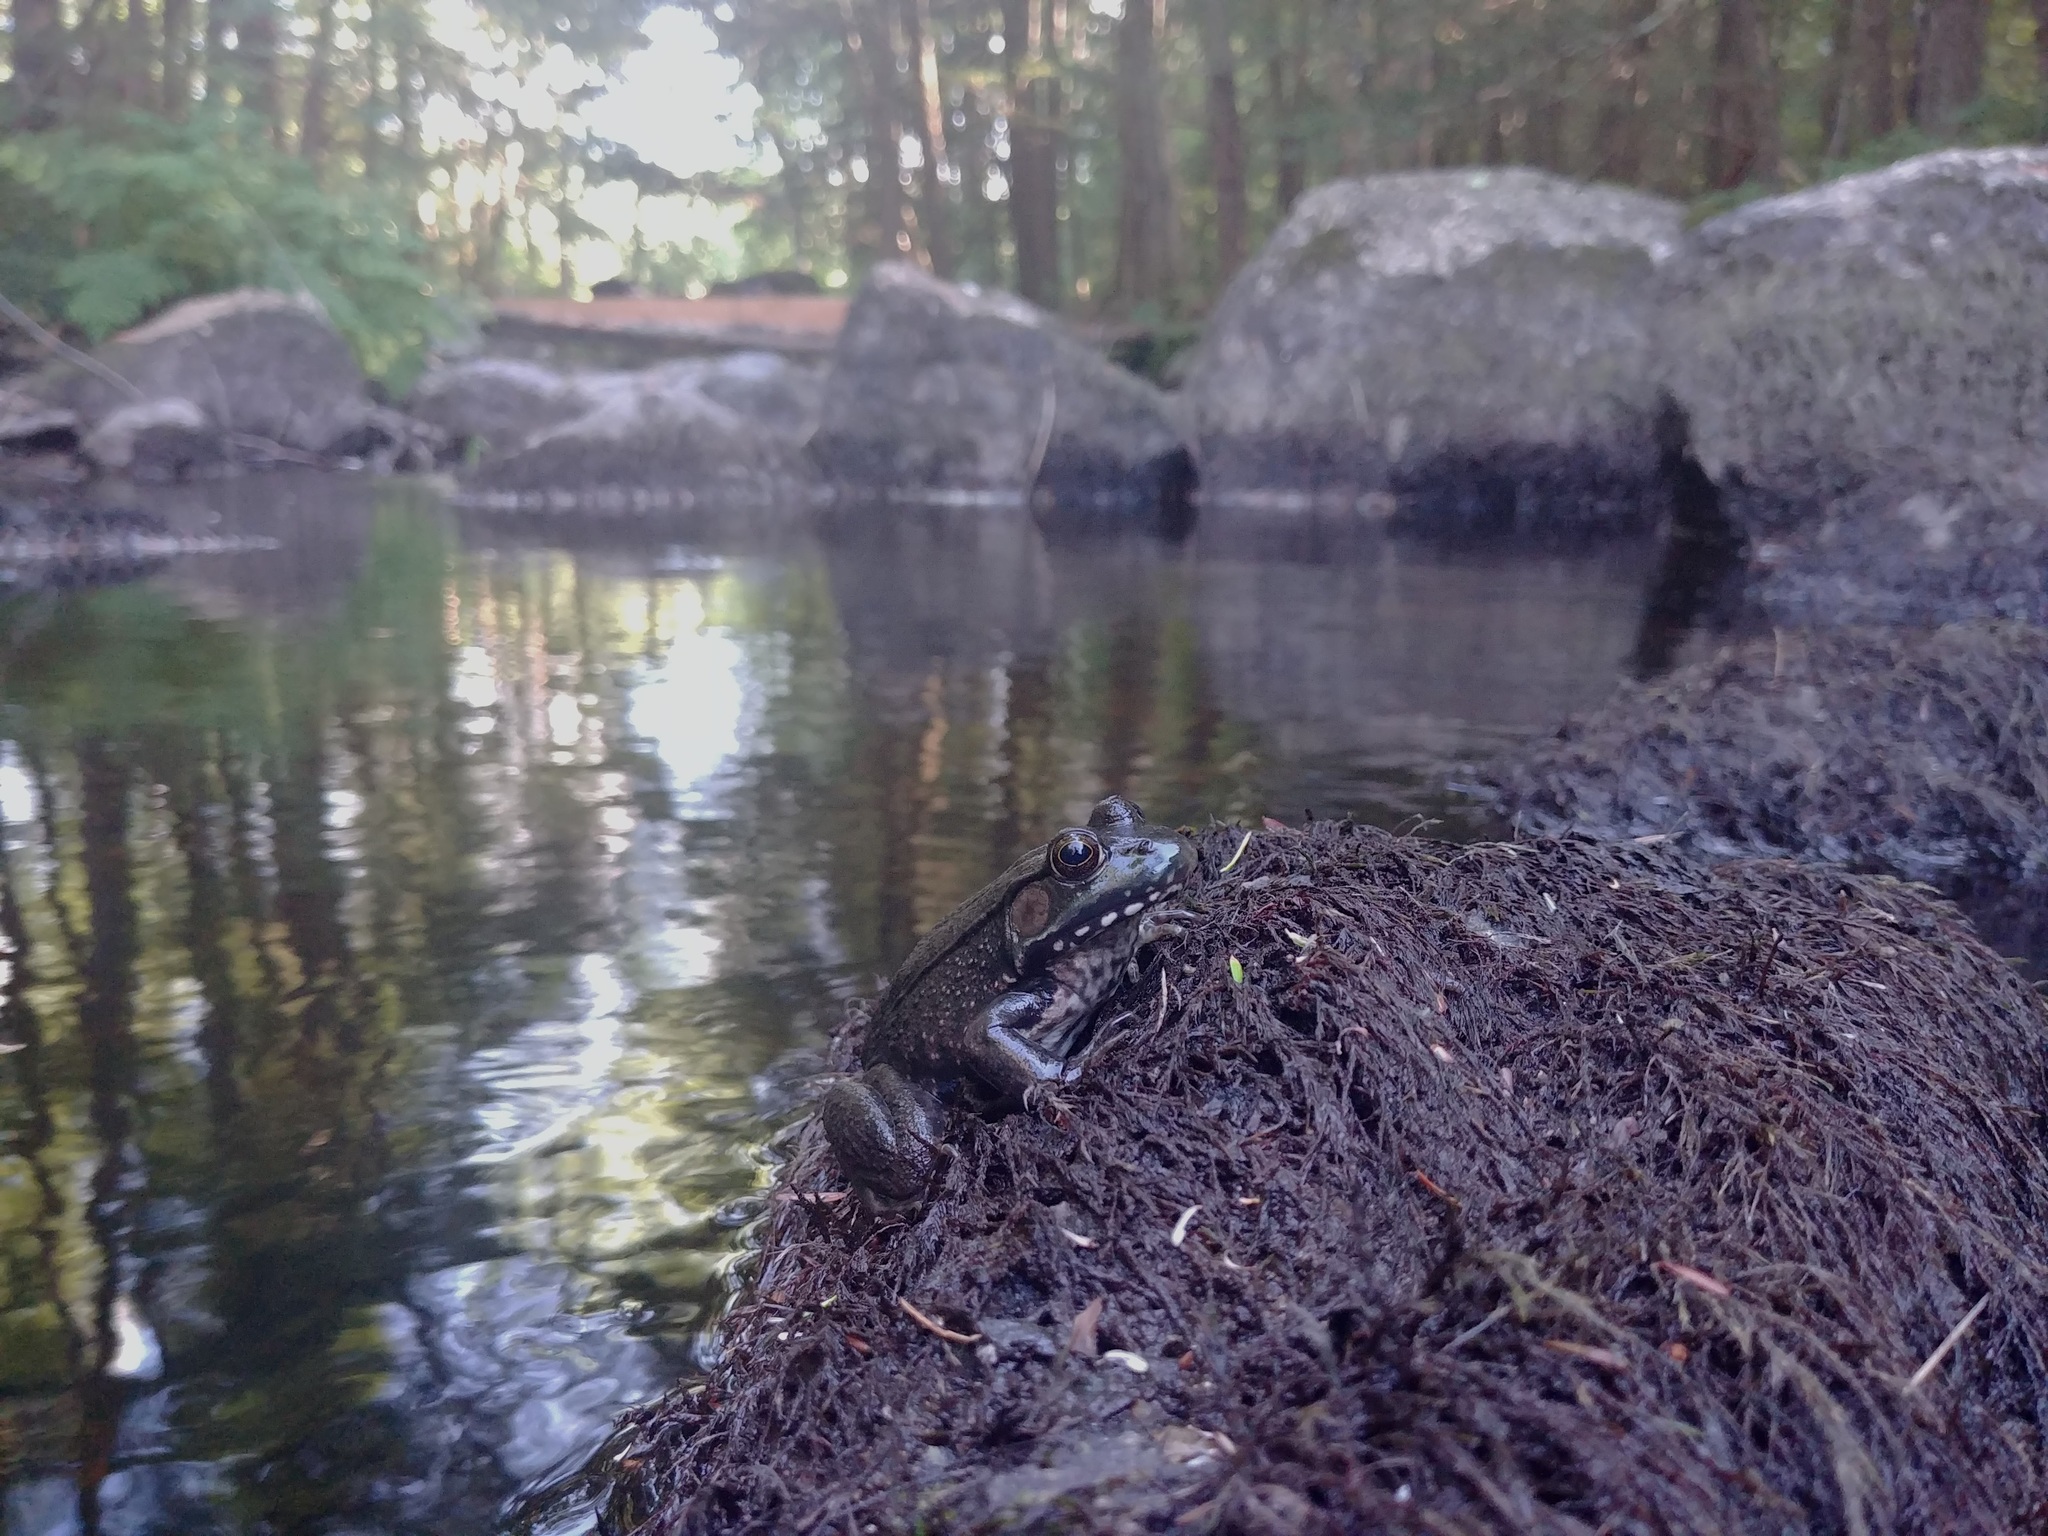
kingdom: Animalia
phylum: Chordata
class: Amphibia
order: Anura
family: Ranidae
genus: Lithobates
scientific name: Lithobates clamitans
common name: Green frog
